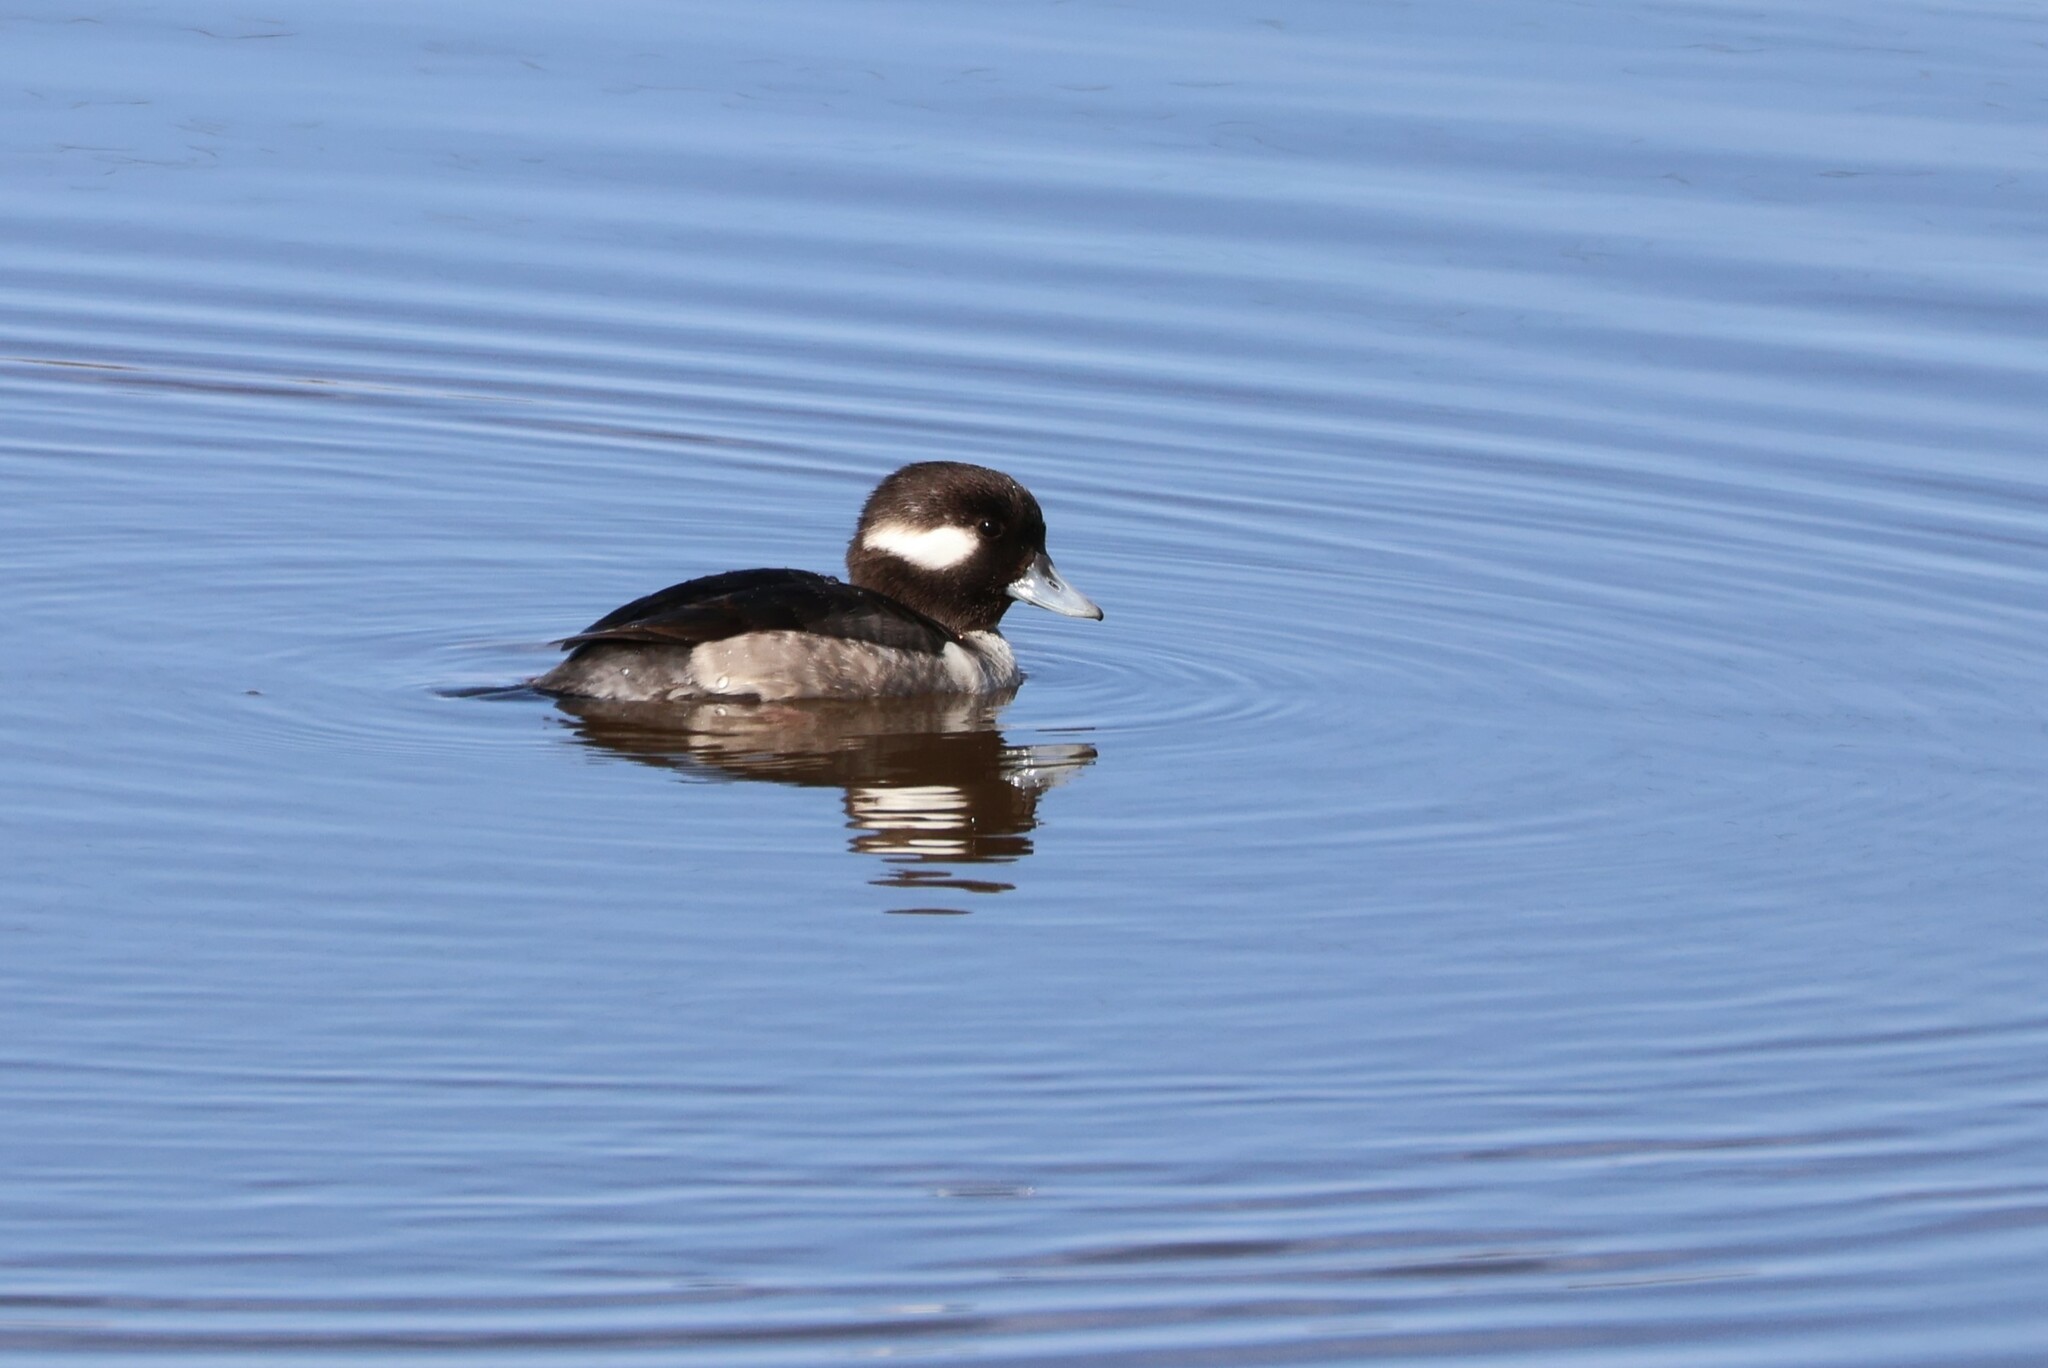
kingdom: Animalia
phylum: Chordata
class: Aves
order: Anseriformes
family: Anatidae
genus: Bucephala
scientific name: Bucephala albeola
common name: Bufflehead
